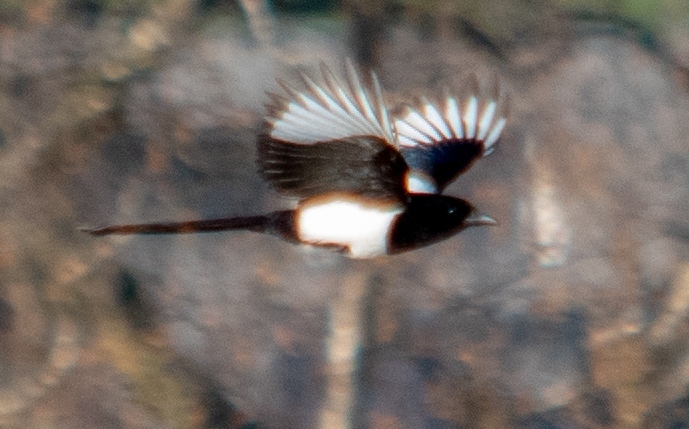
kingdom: Animalia
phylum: Chordata
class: Aves
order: Passeriformes
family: Corvidae
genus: Pica
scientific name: Pica pica
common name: Eurasian magpie
